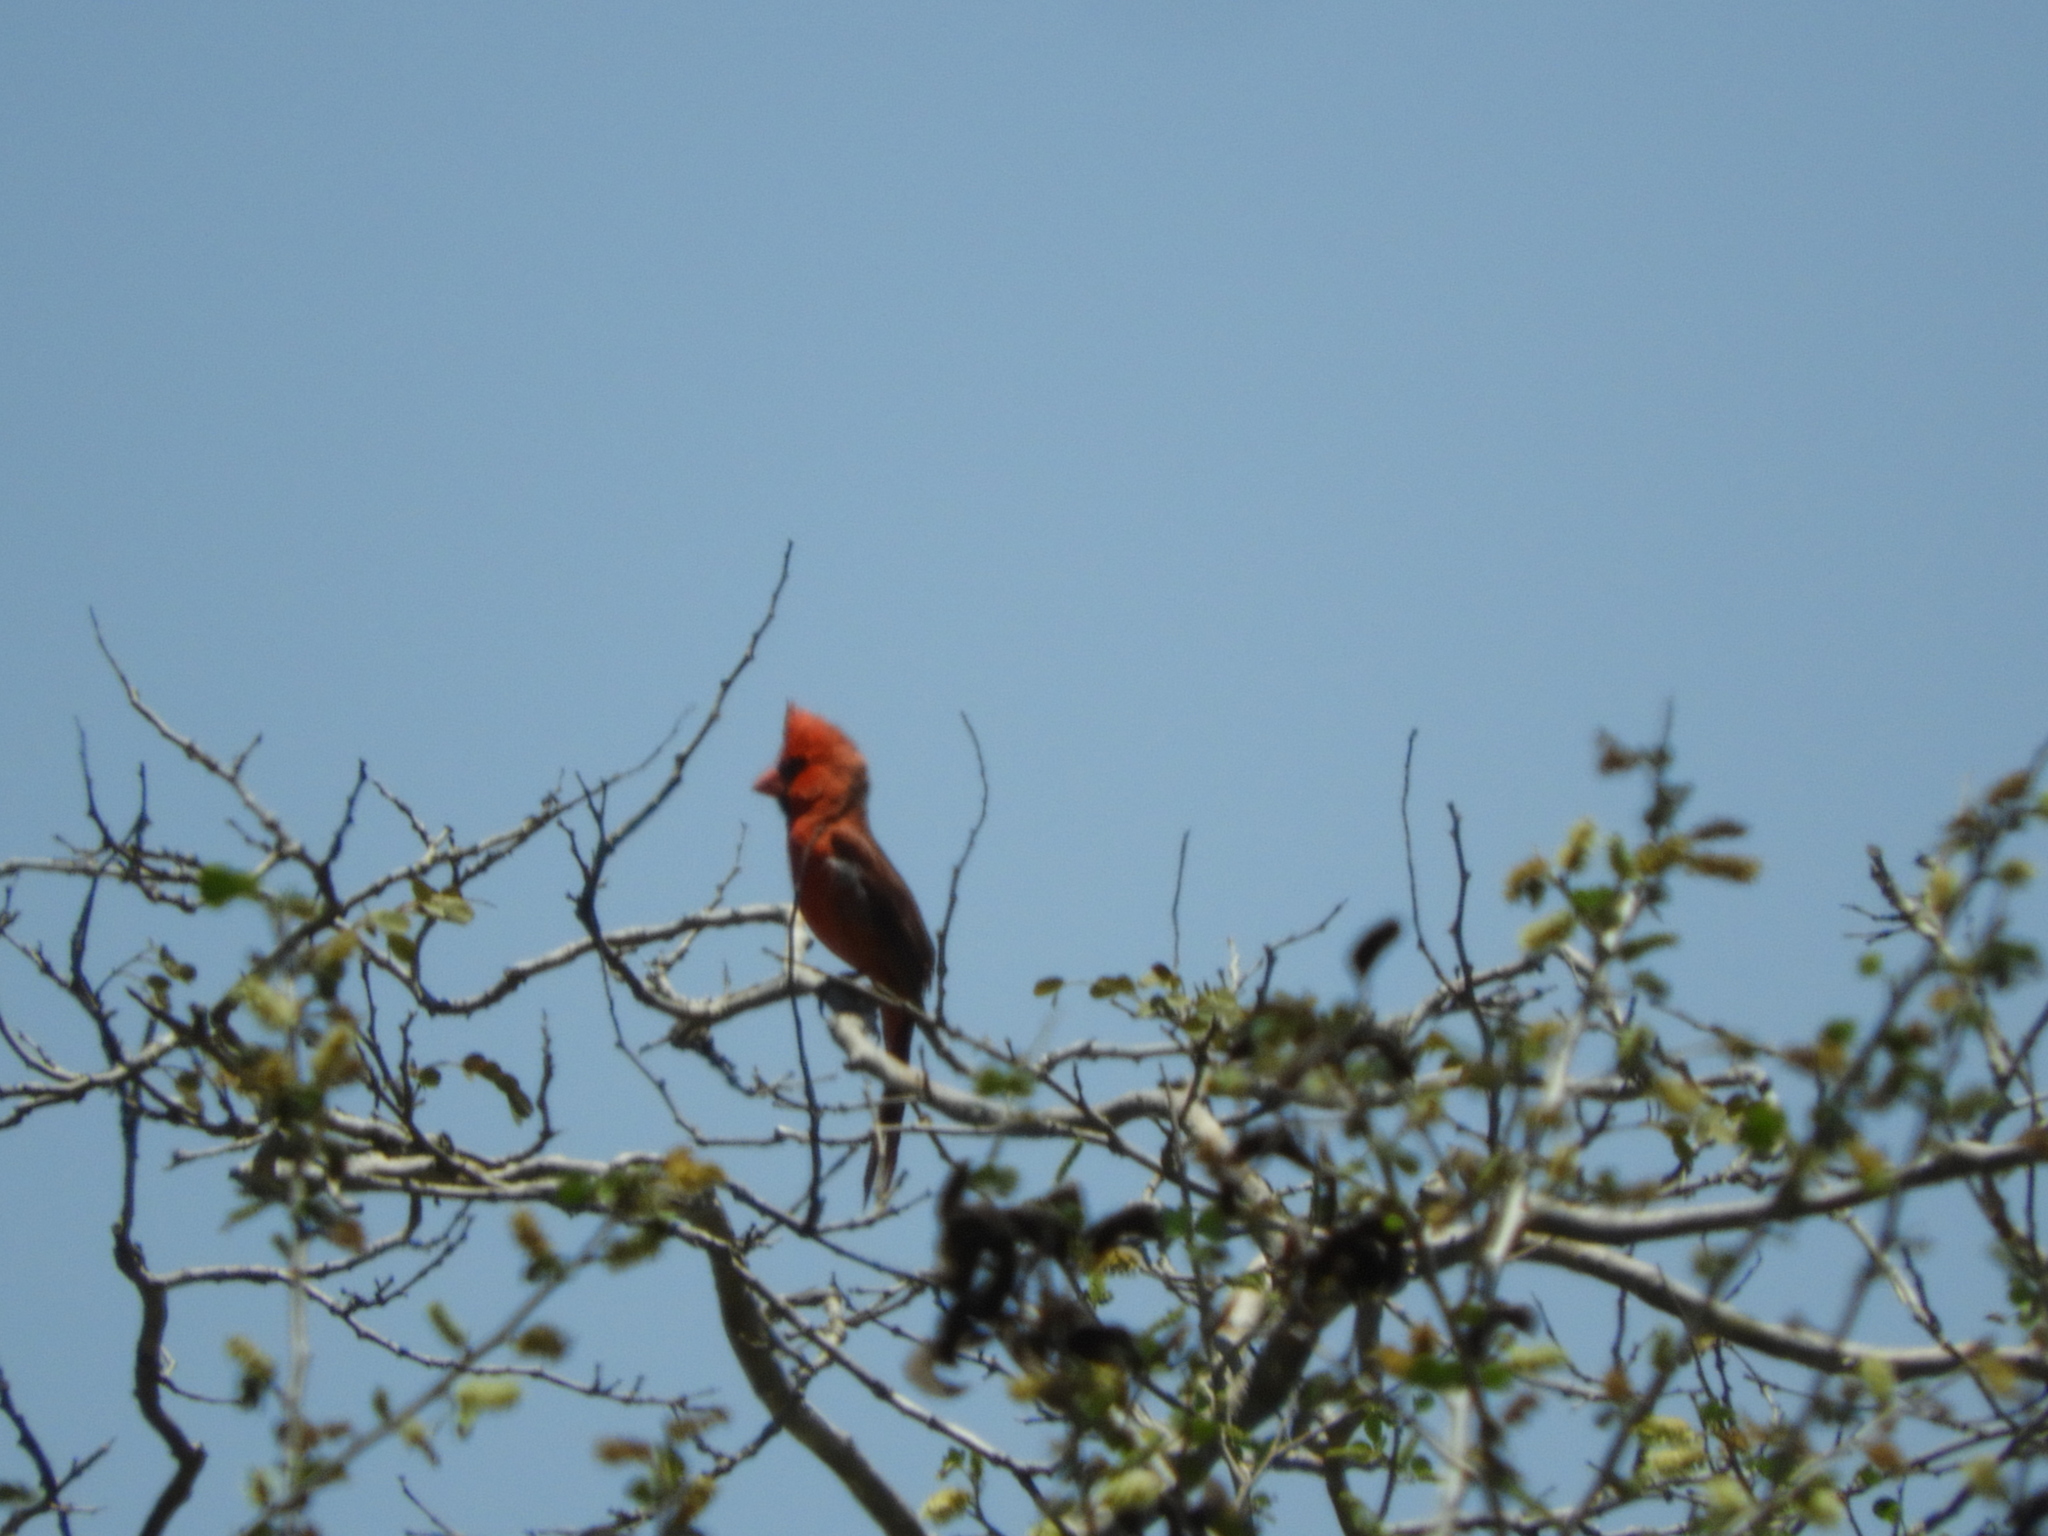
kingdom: Animalia
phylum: Chordata
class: Aves
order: Passeriformes
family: Cardinalidae
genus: Cardinalis
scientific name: Cardinalis cardinalis
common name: Northern cardinal
